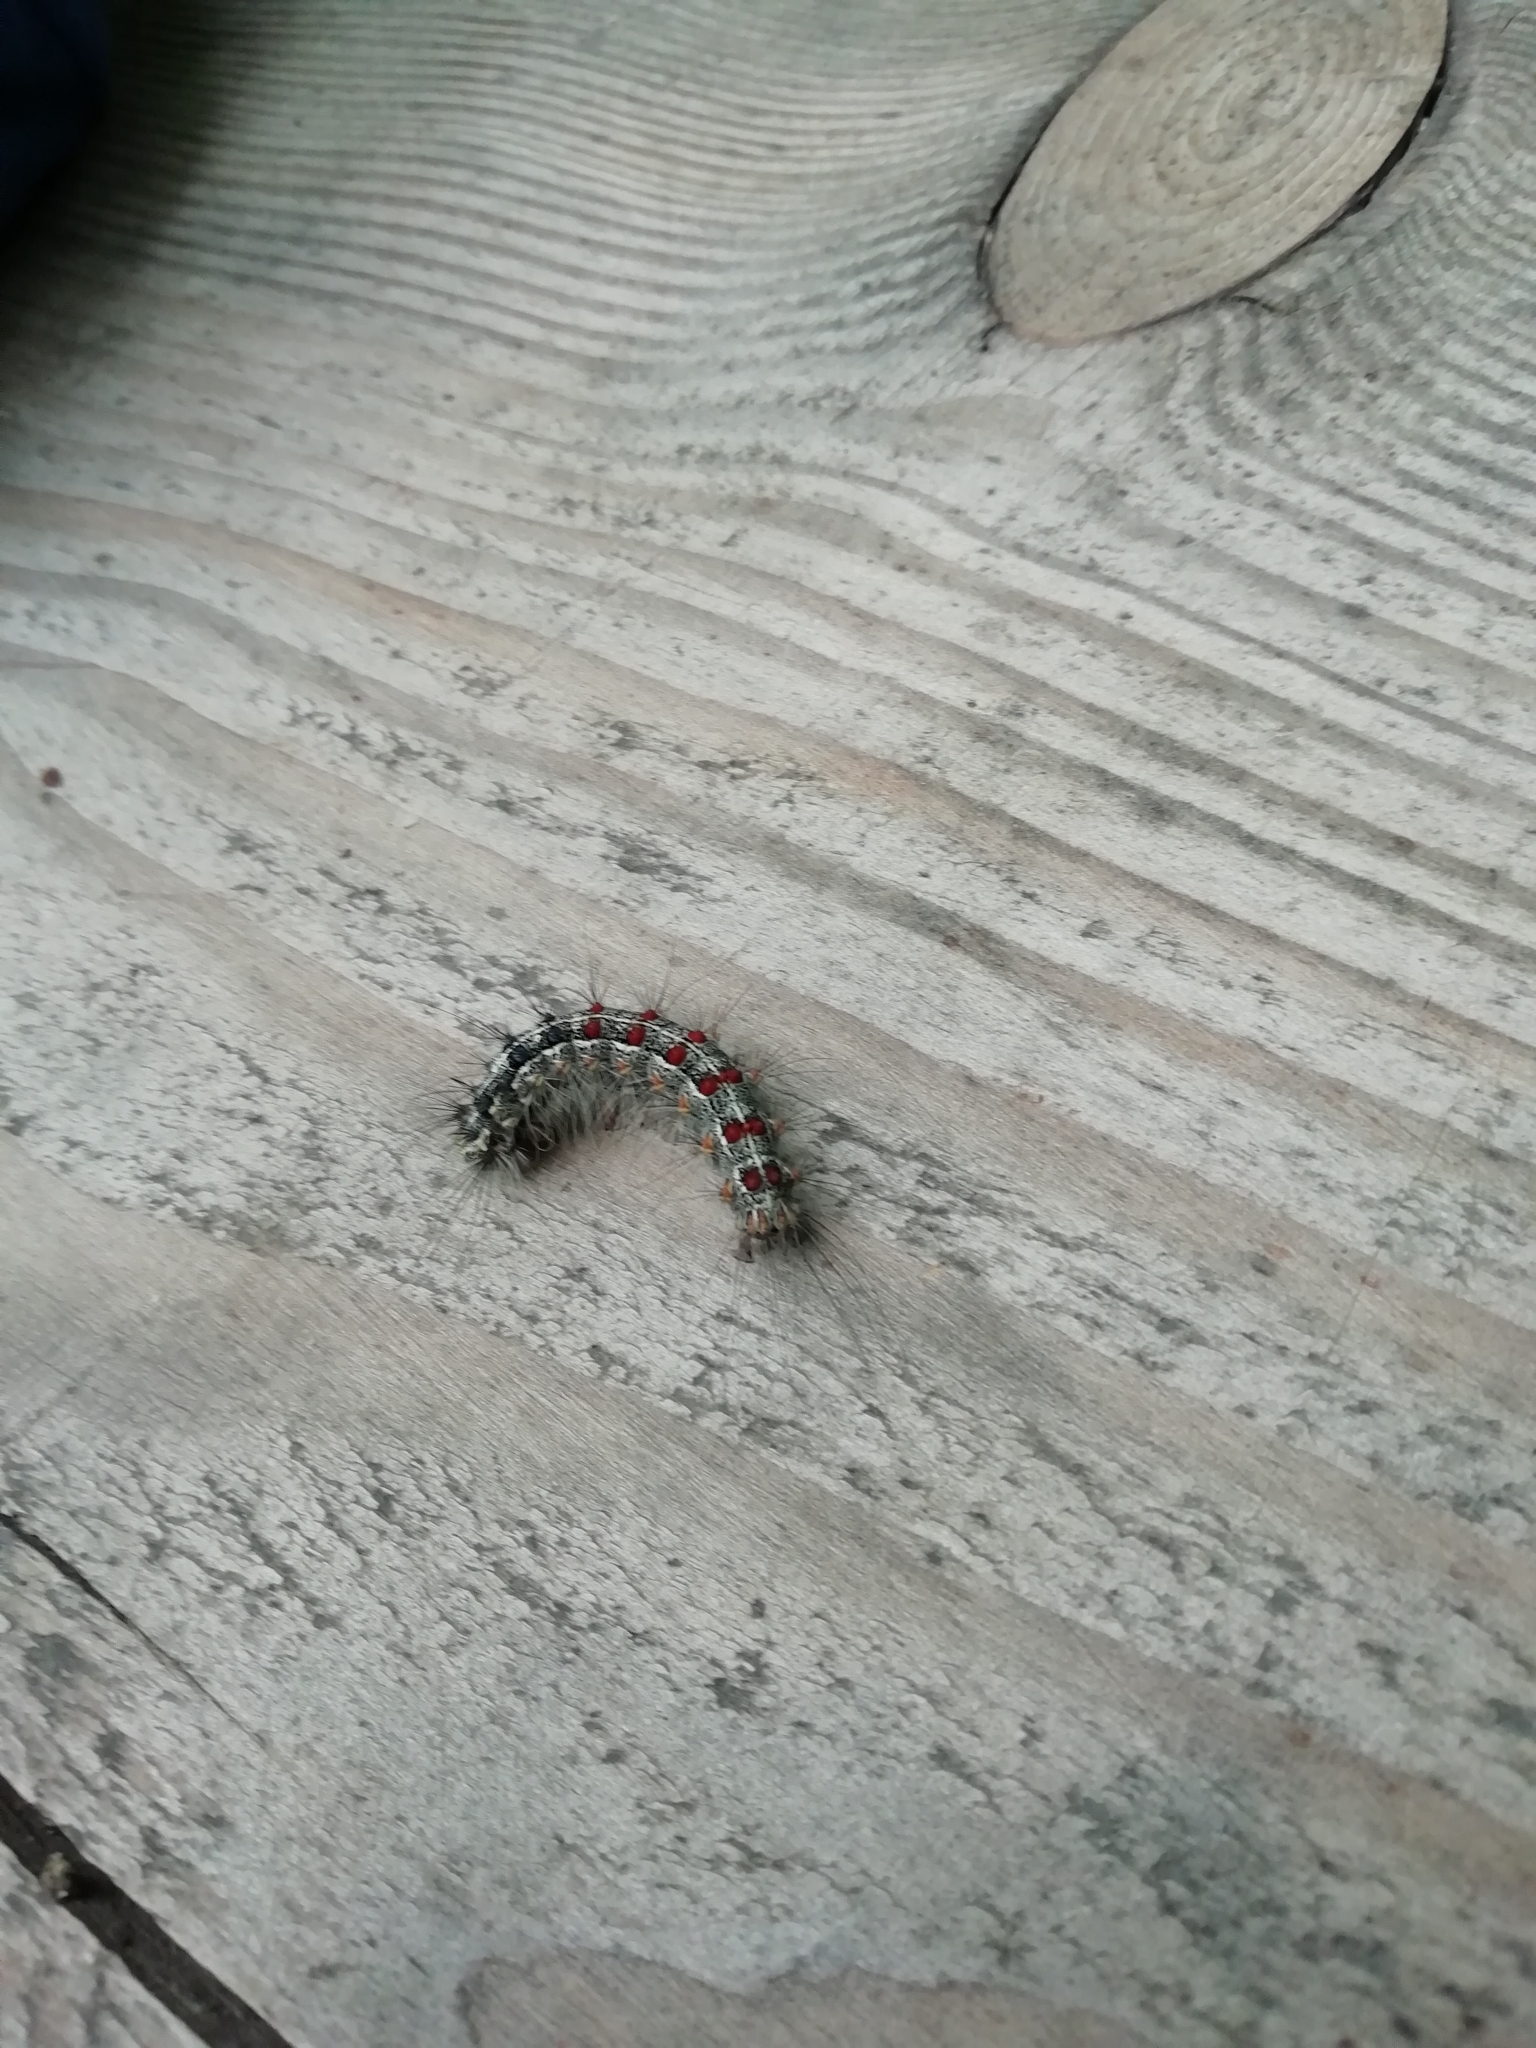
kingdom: Animalia
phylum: Arthropoda
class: Insecta
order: Lepidoptera
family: Erebidae
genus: Lymantria
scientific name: Lymantria dispar
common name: Gypsy moth
